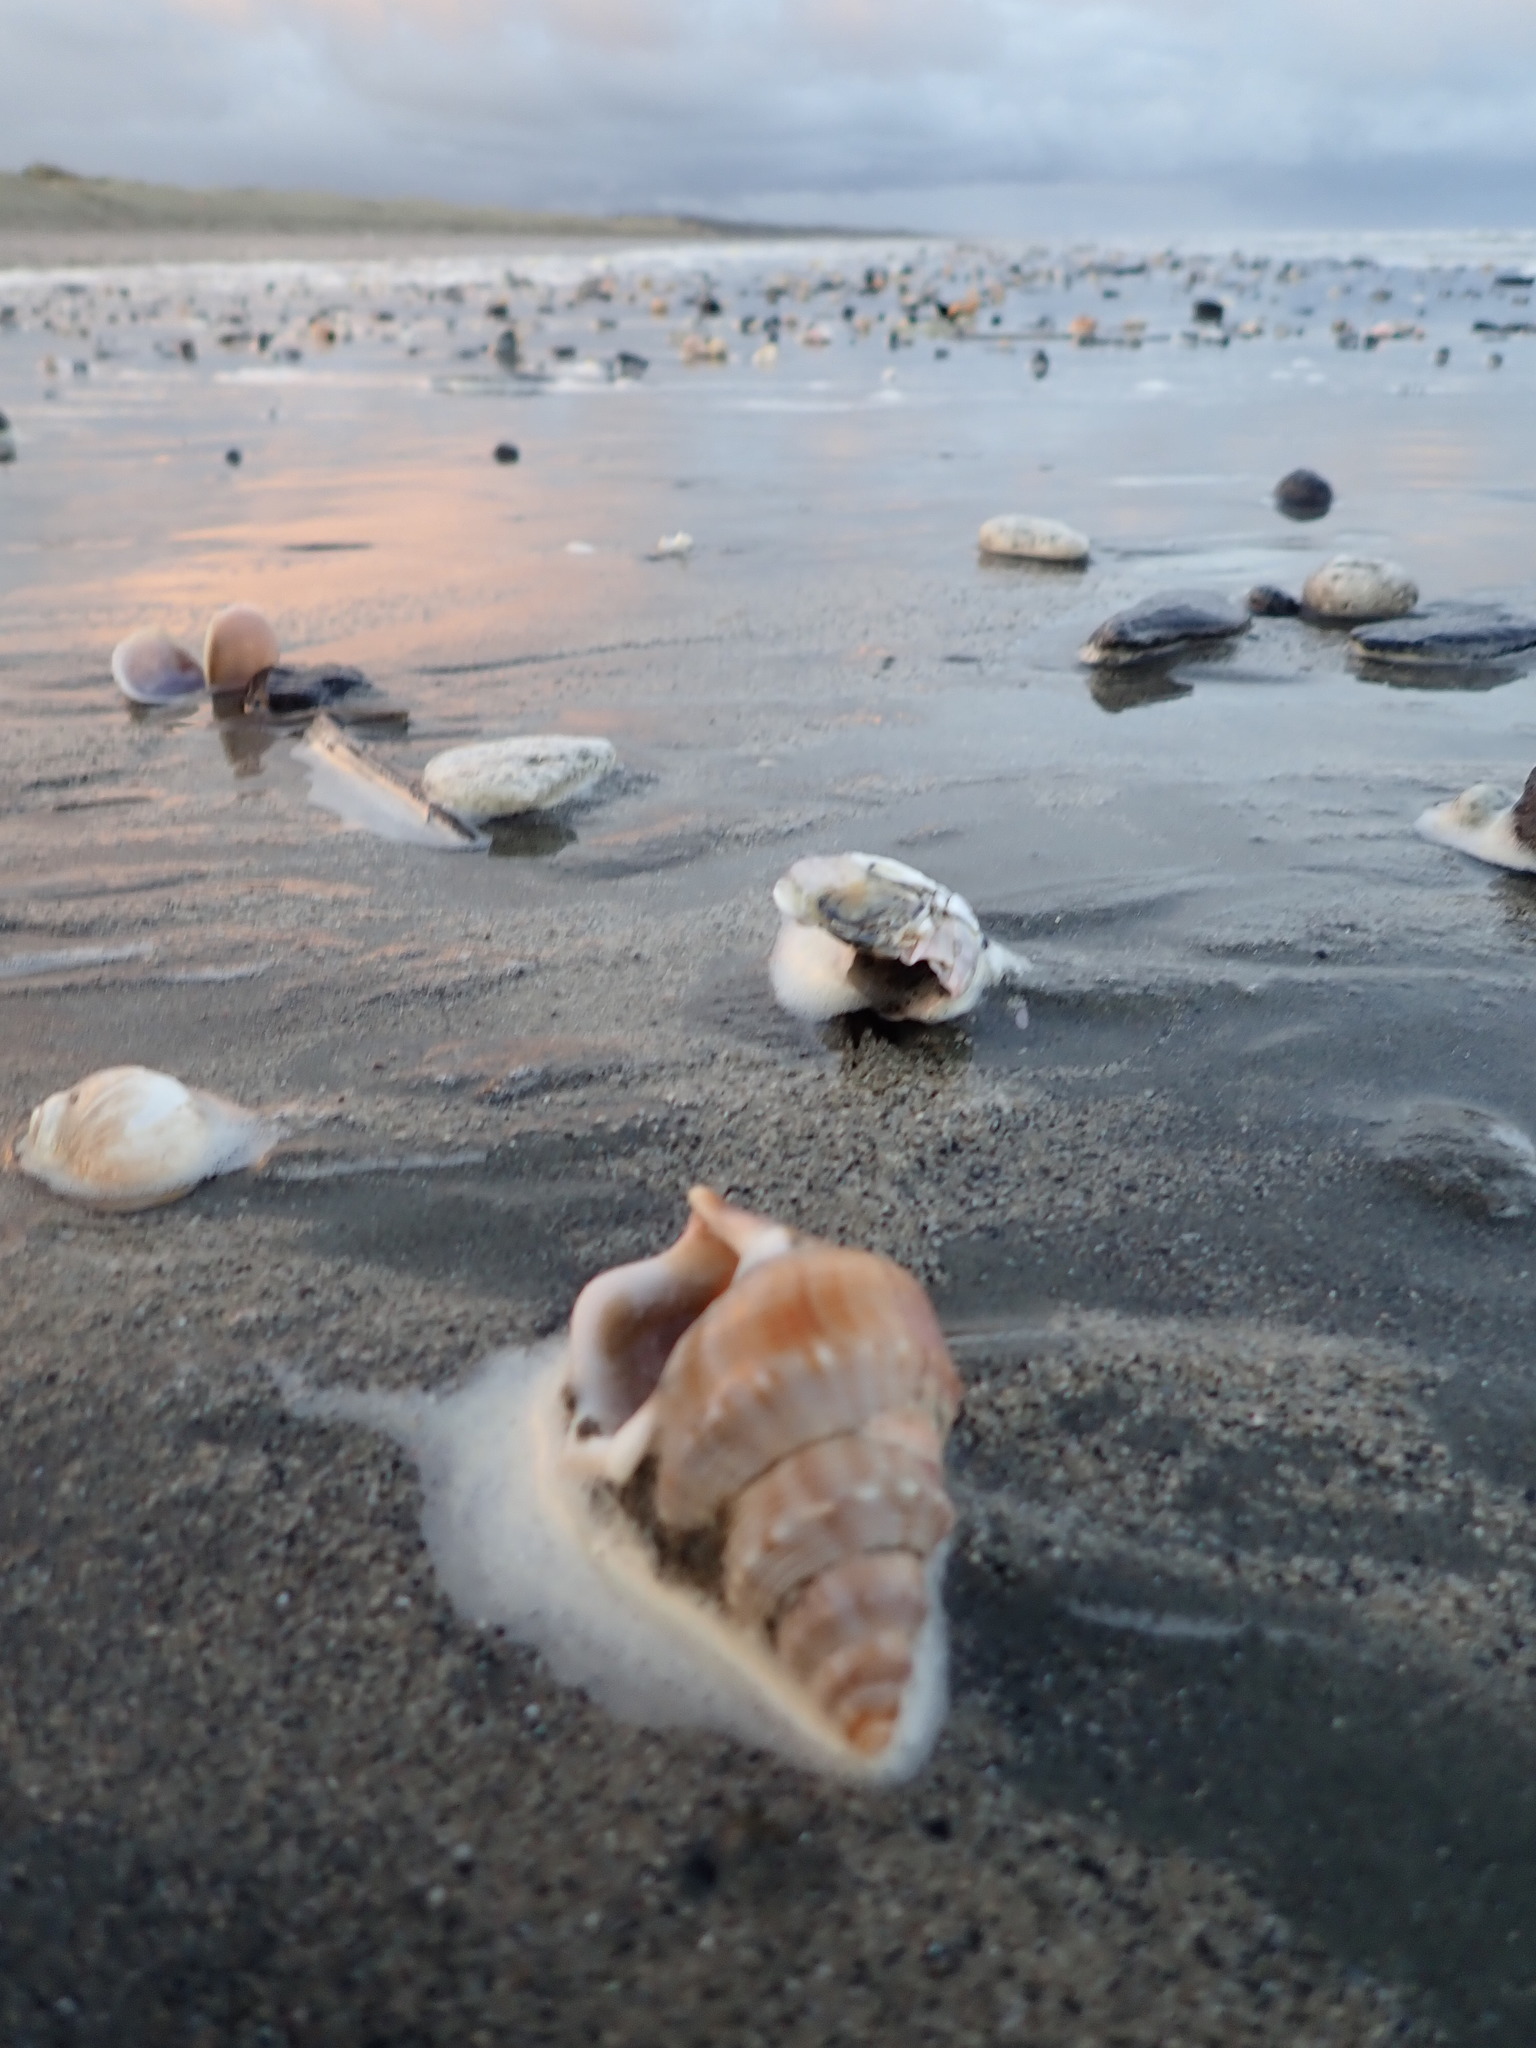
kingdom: Animalia
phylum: Mollusca
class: Gastropoda
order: Littorinimorpha
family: Struthiolariidae
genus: Struthiolaria
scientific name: Struthiolaria papulosa
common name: Large ostrich foot
